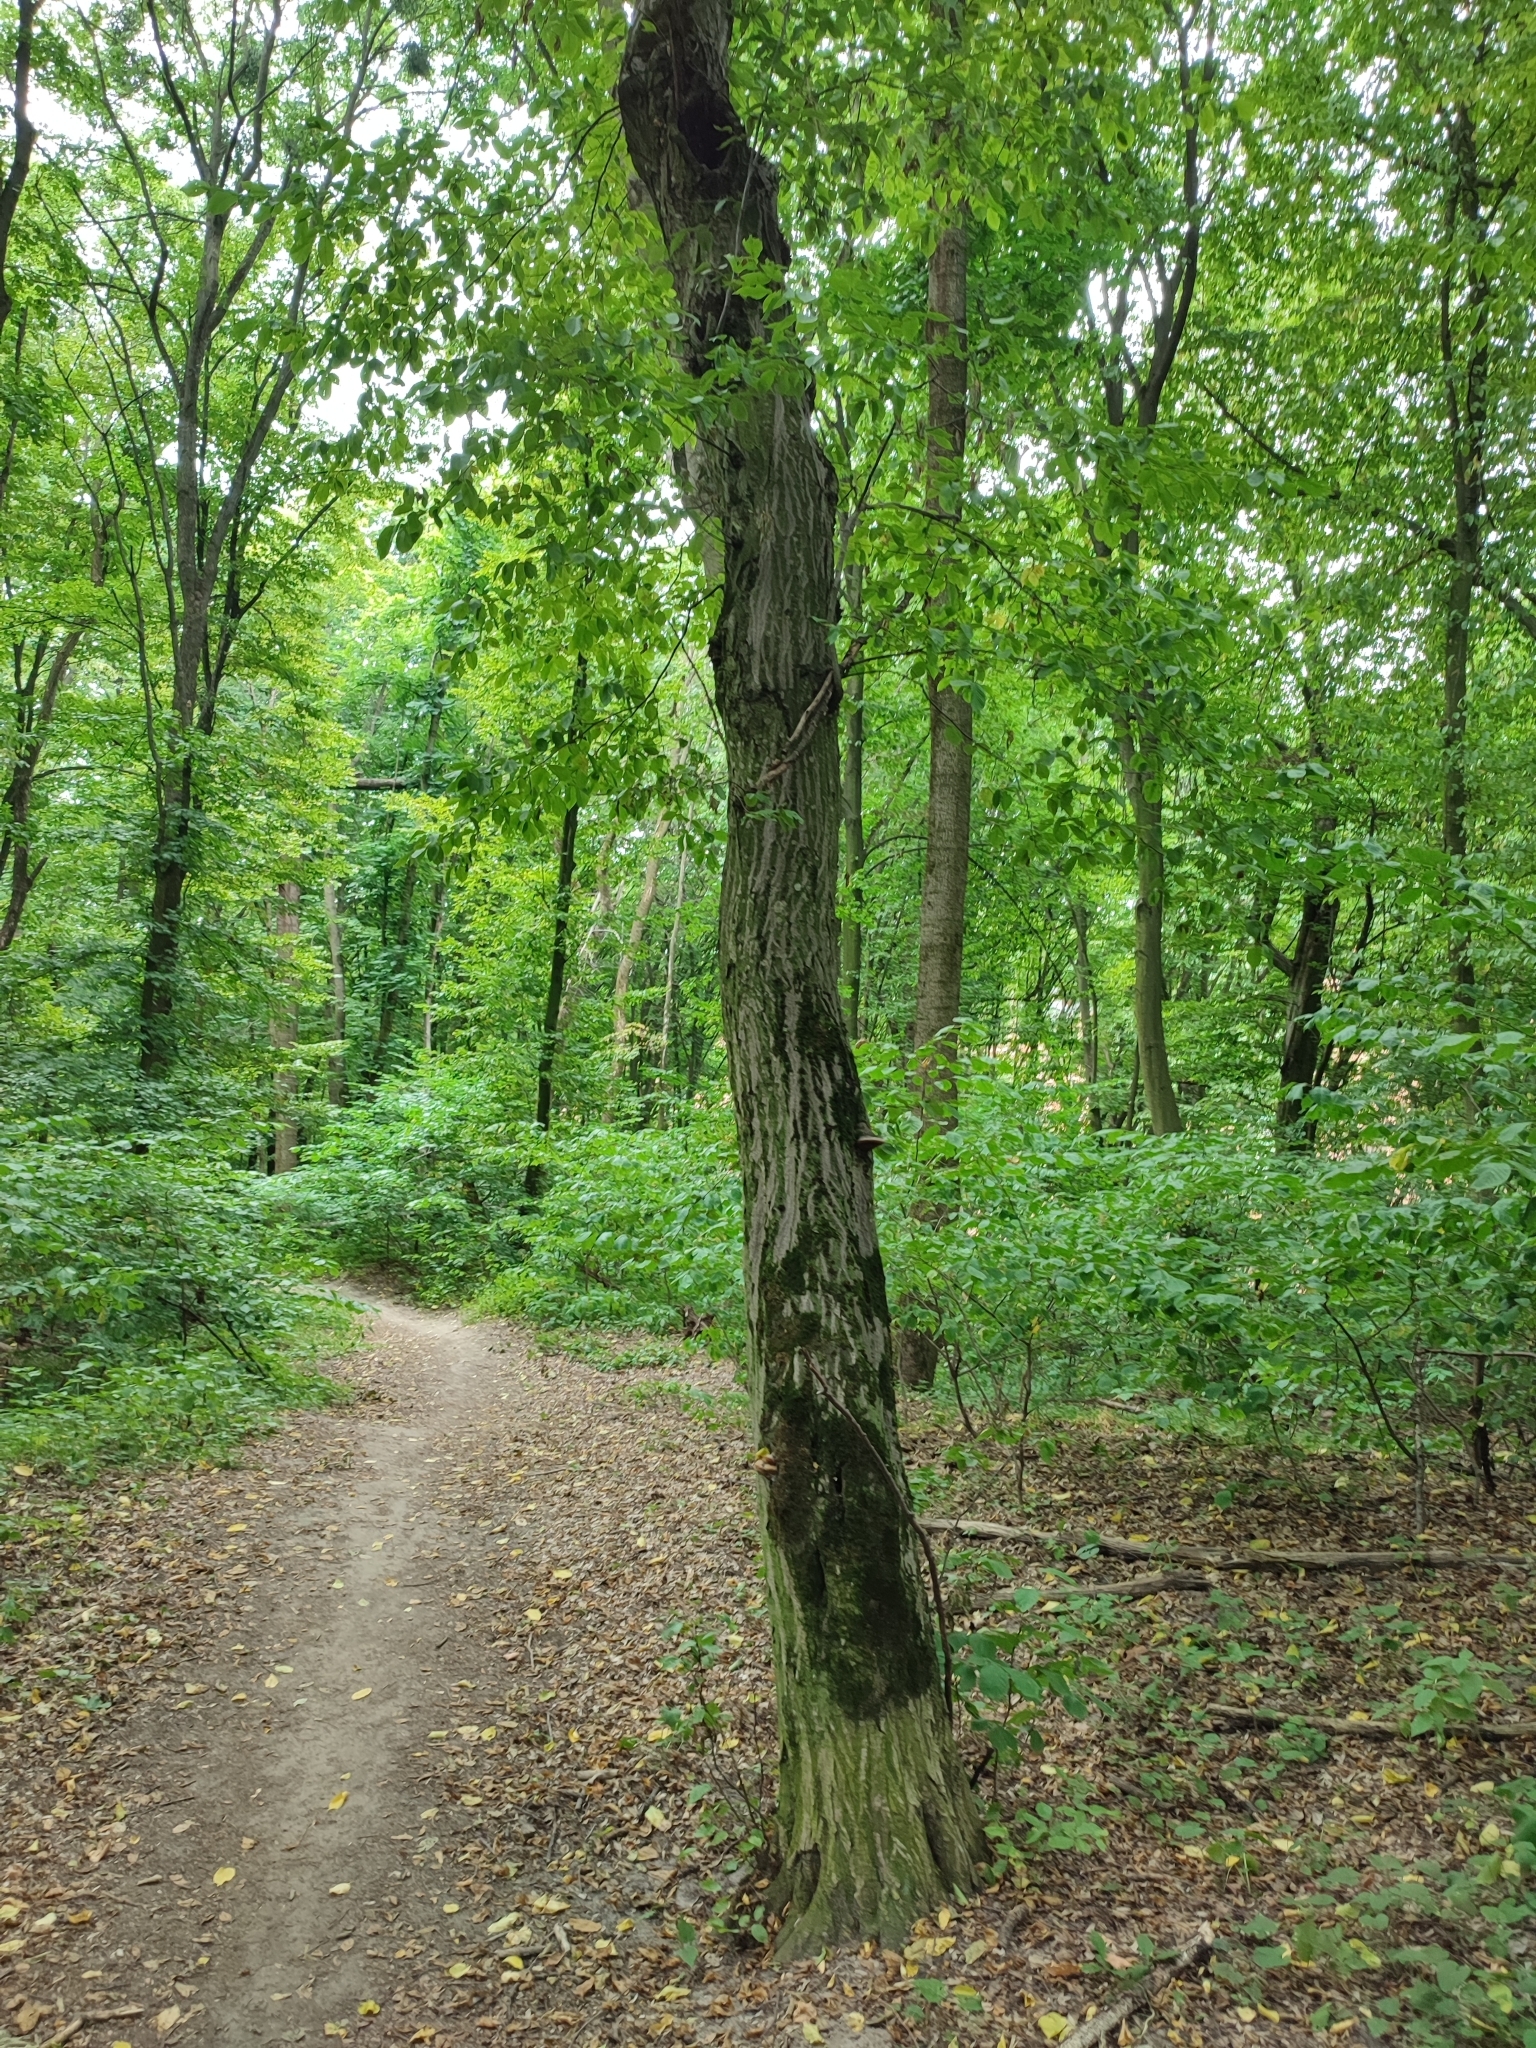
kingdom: Plantae
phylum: Tracheophyta
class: Magnoliopsida
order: Fagales
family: Betulaceae
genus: Carpinus
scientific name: Carpinus betulus
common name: Hornbeam
